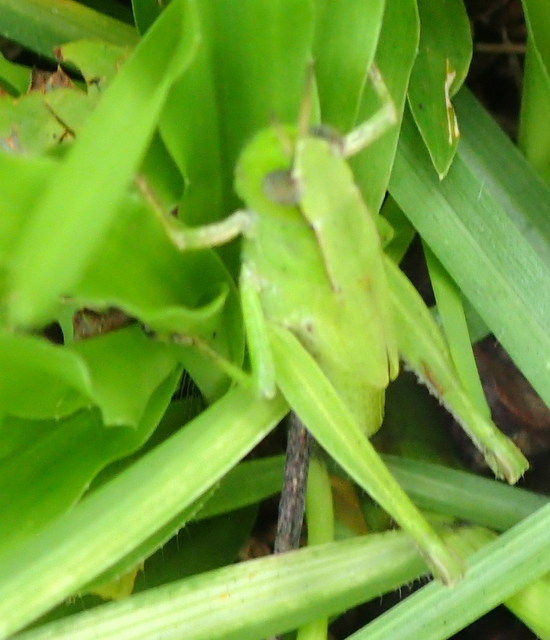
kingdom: Animalia
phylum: Arthropoda
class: Insecta
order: Orthoptera
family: Acrididae
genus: Dichromorpha
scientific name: Dichromorpha viridis
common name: Short-winged green grasshopper
